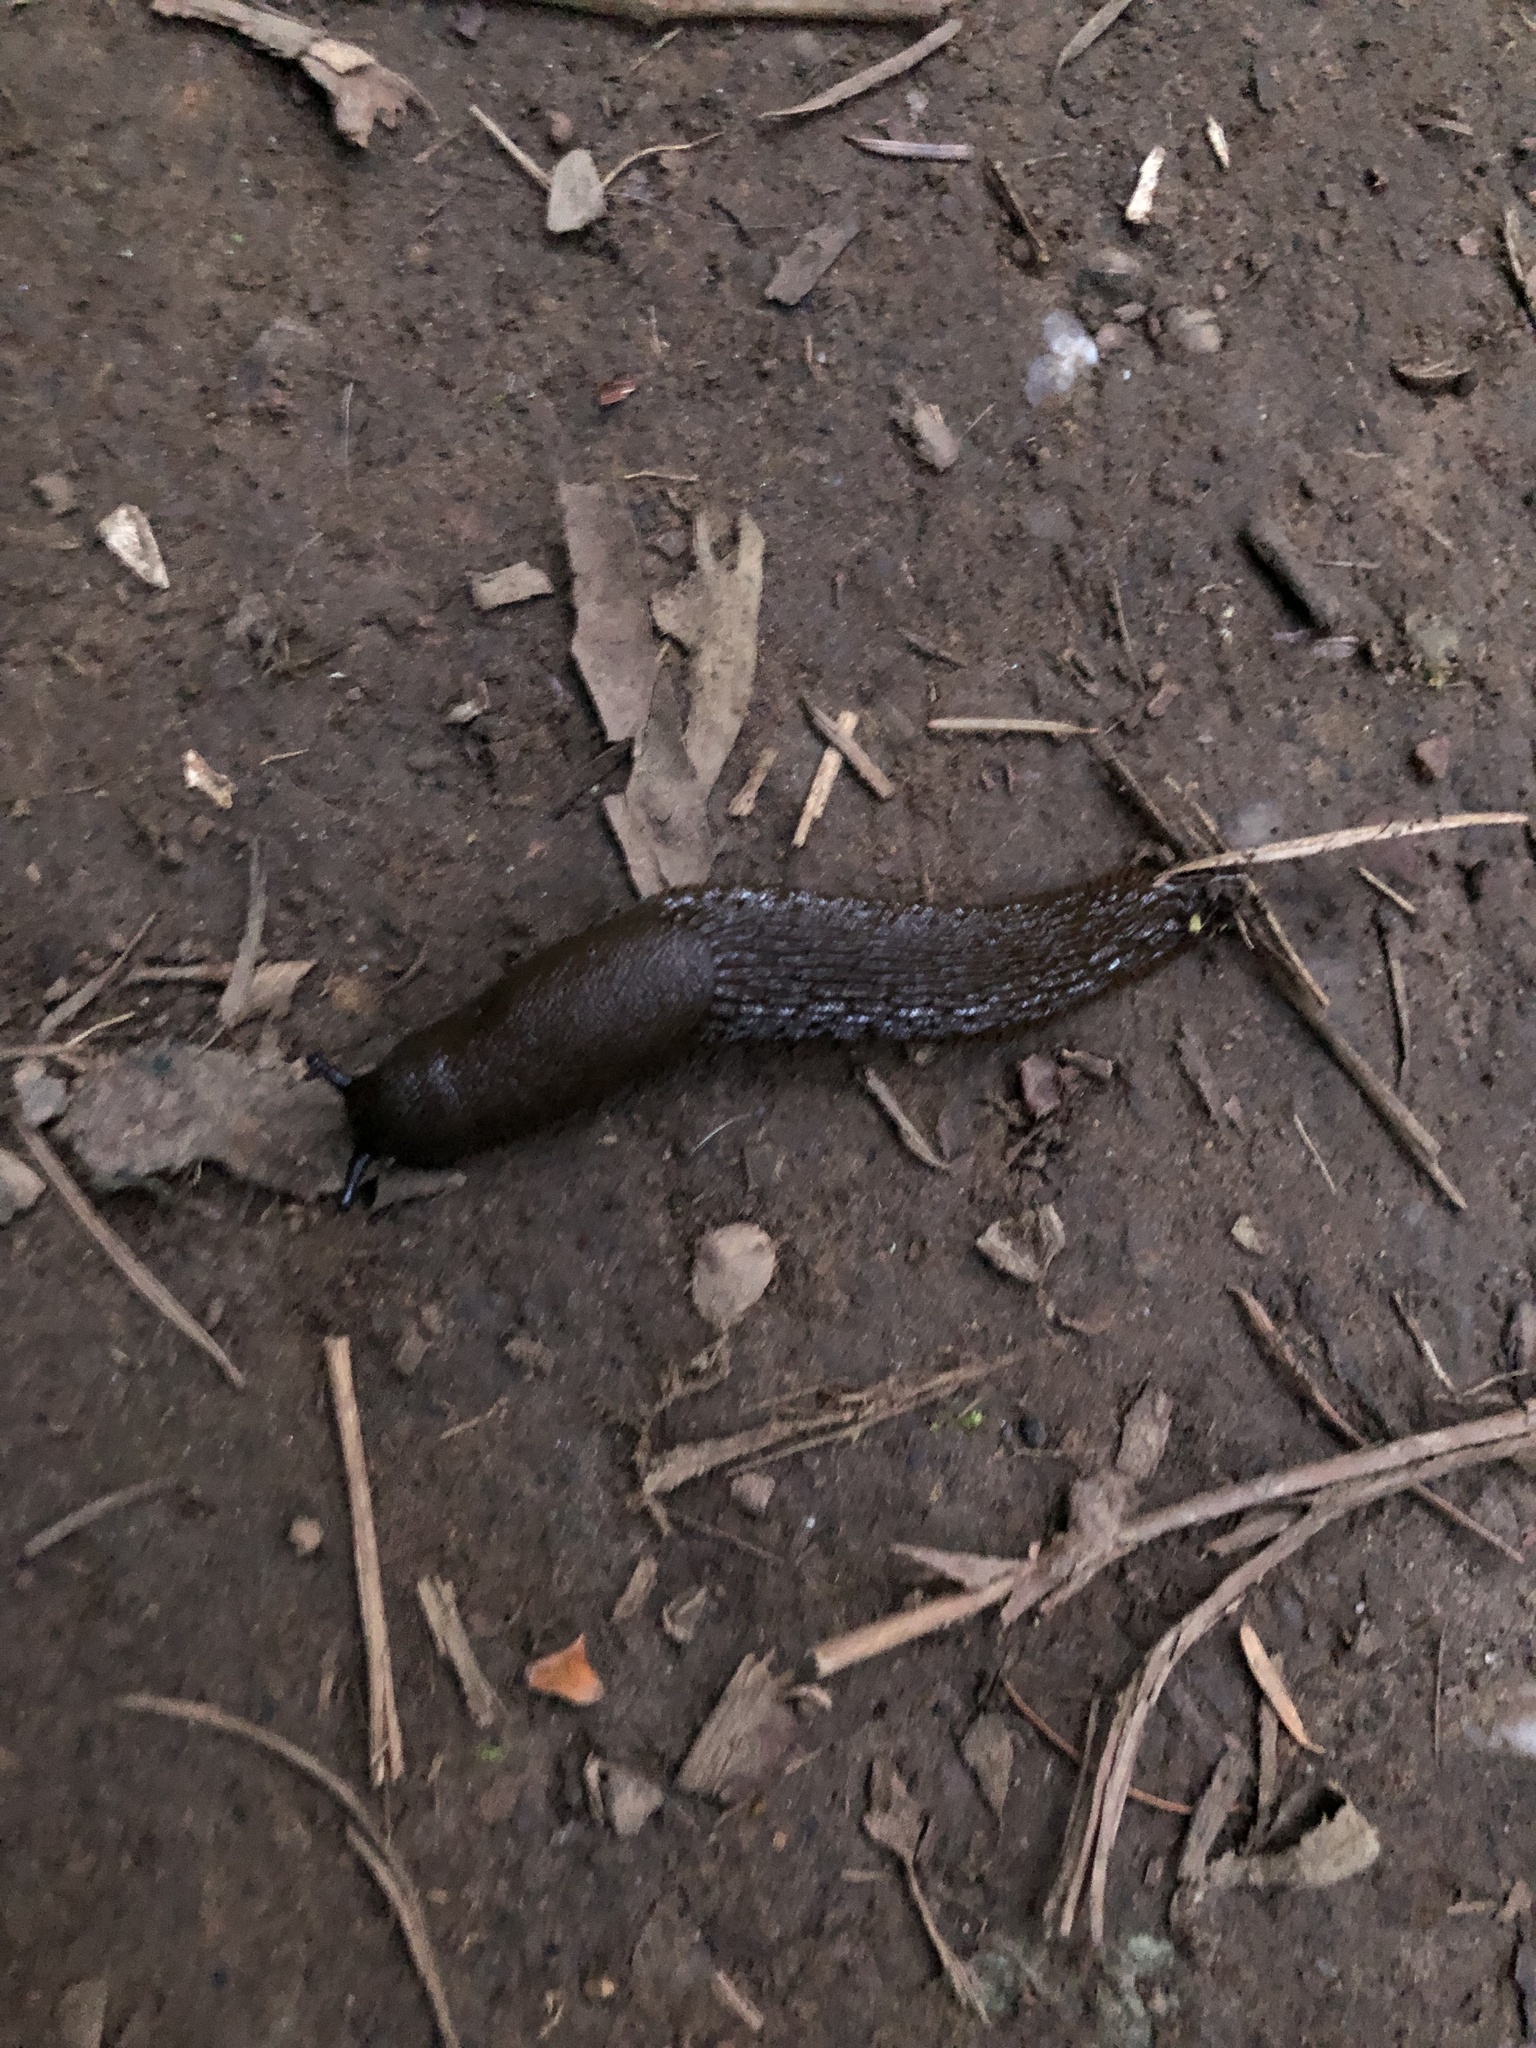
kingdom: Animalia
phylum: Mollusca
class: Gastropoda
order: Stylommatophora
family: Arionidae
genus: Arion
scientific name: Arion
